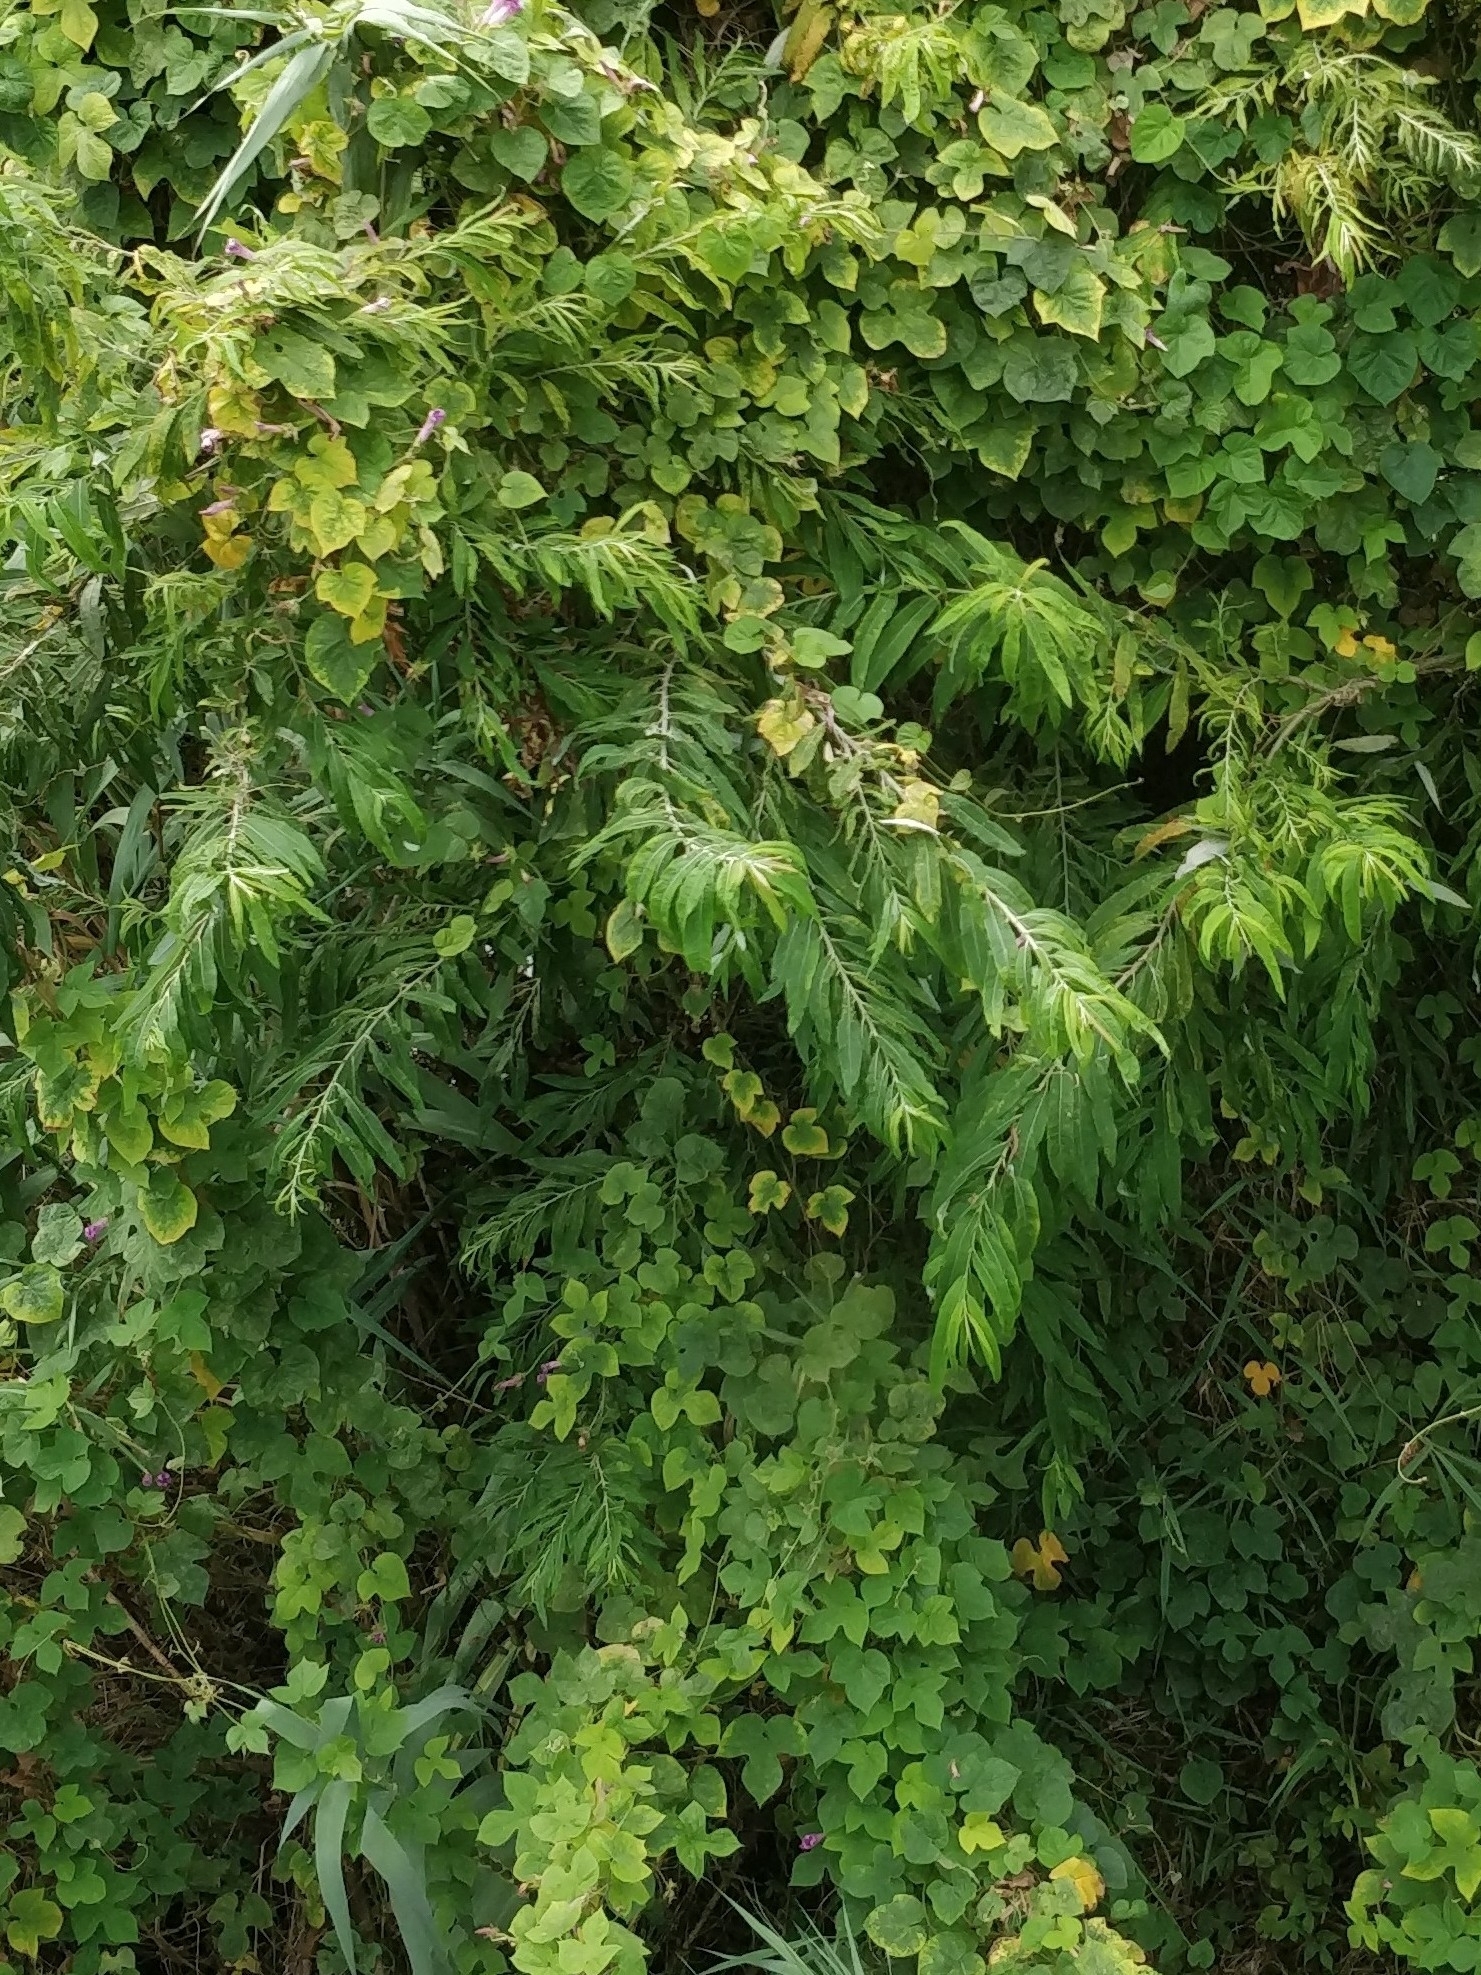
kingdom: Plantae
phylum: Tracheophyta
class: Magnoliopsida
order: Malpighiales
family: Salicaceae
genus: Salix
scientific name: Salix canariensis
